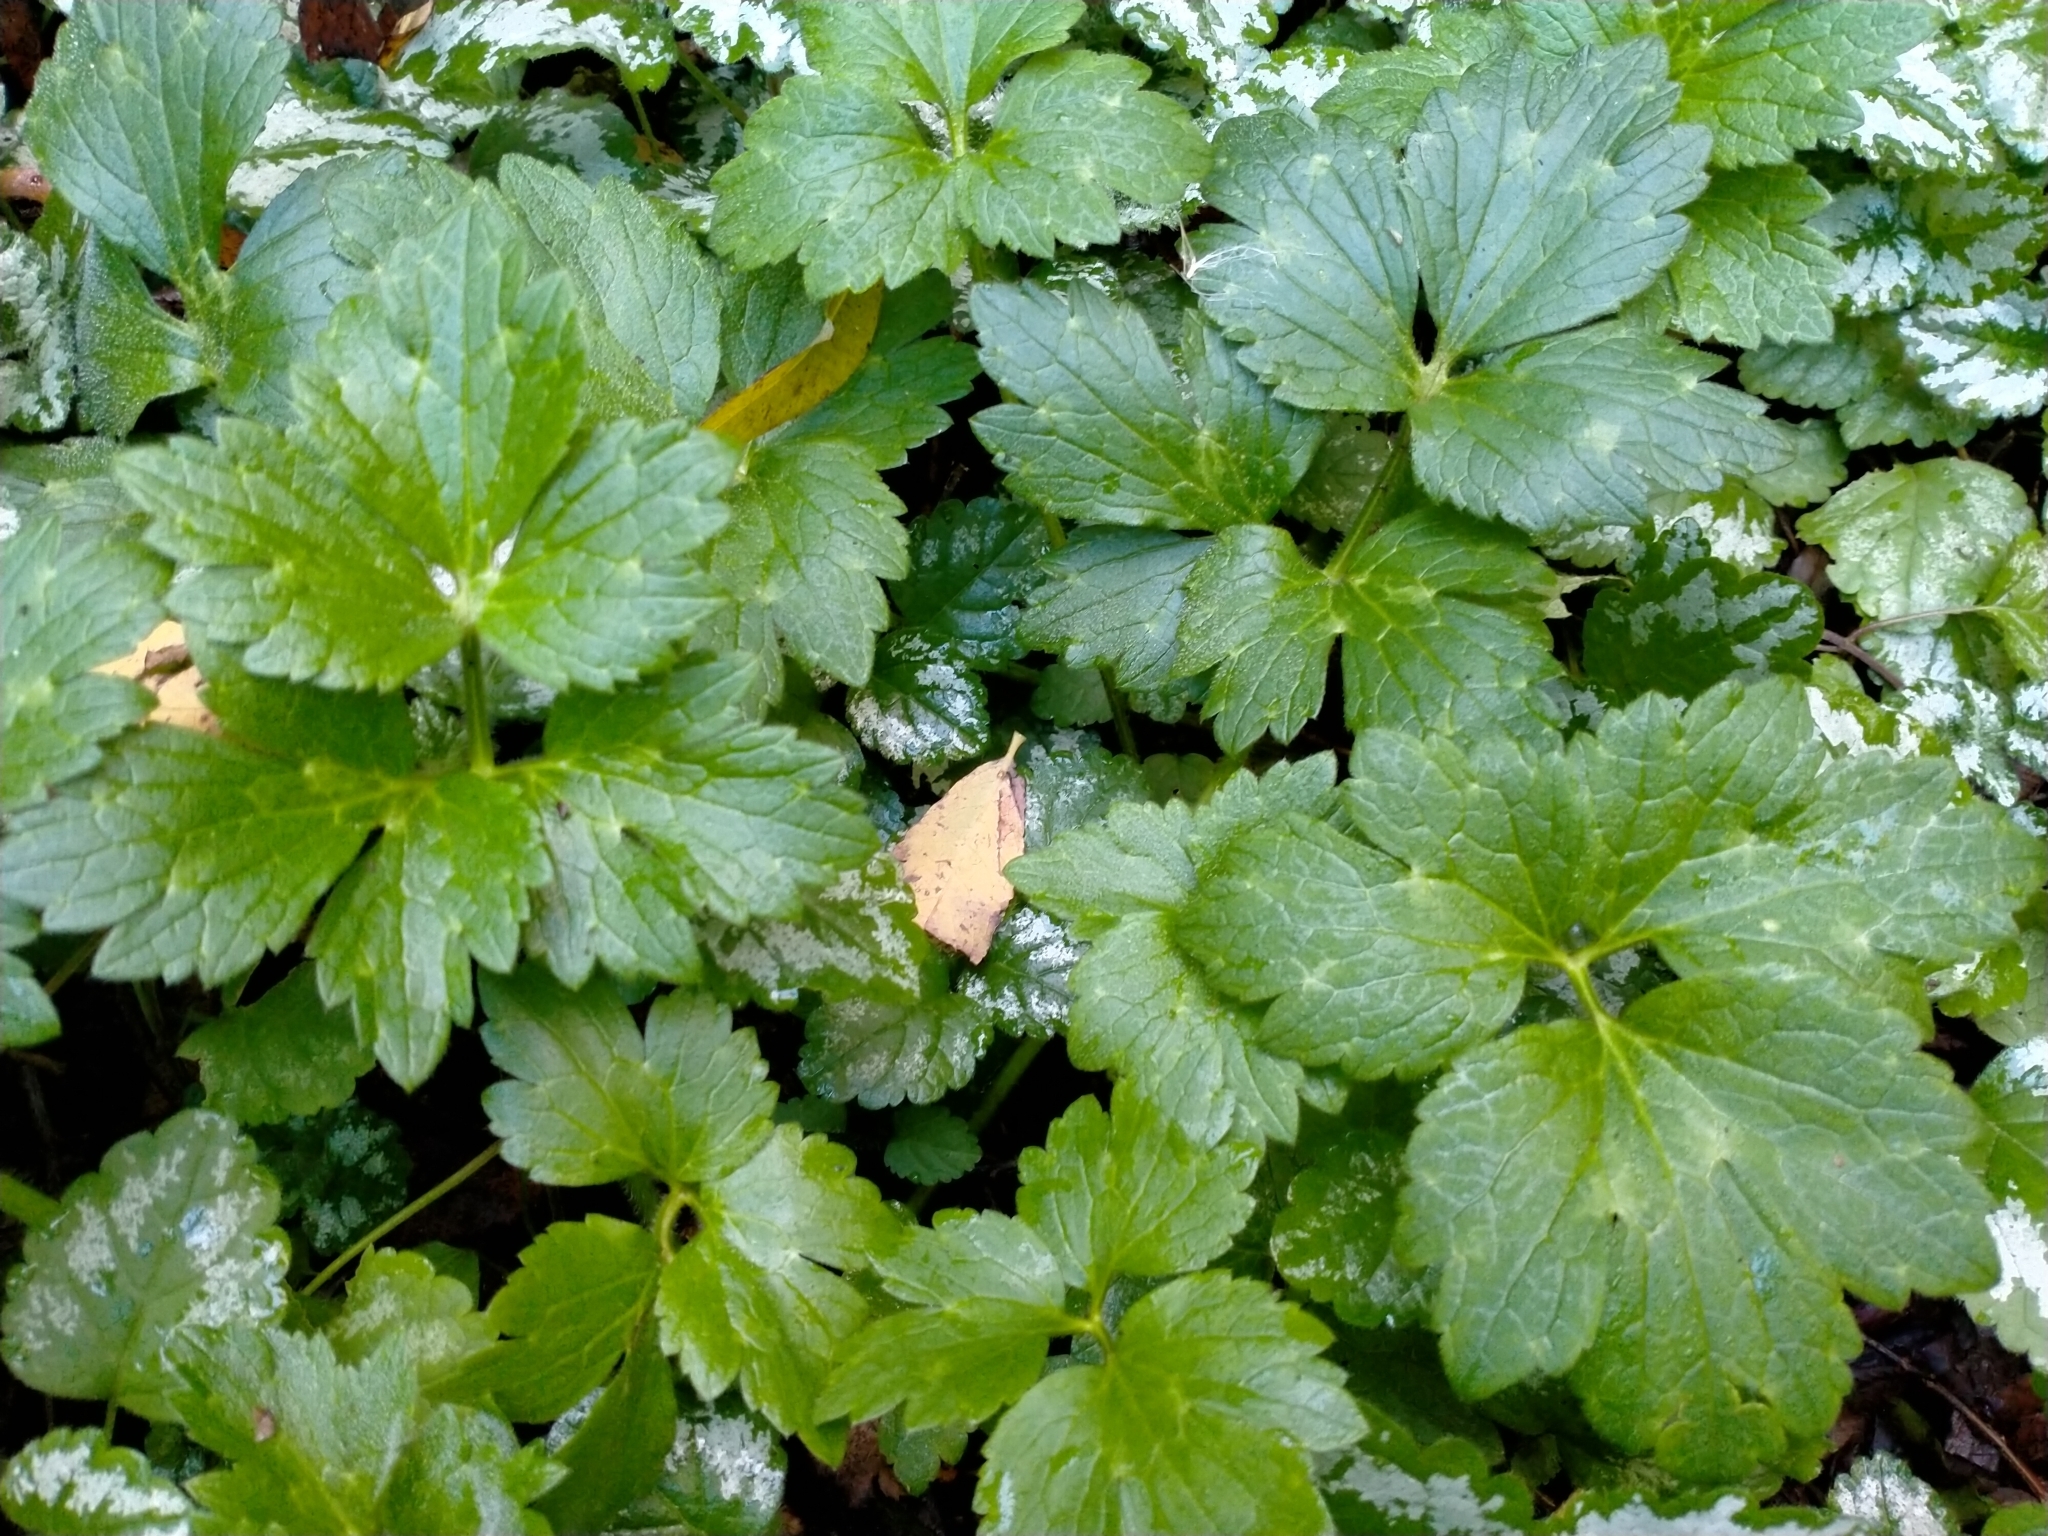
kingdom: Plantae
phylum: Tracheophyta
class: Magnoliopsida
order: Ranunculales
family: Ranunculaceae
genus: Ranunculus
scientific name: Ranunculus repens
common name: Creeping buttercup
